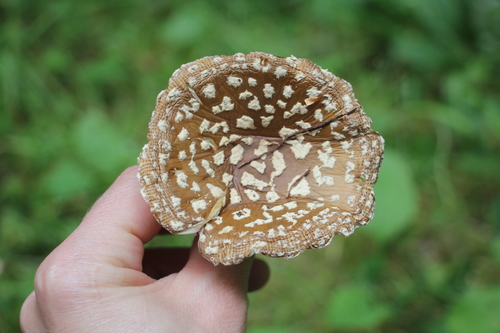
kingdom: Fungi
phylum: Basidiomycota
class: Agaricomycetes
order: Agaricales
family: Amanitaceae
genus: Amanita
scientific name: Amanita regalis
